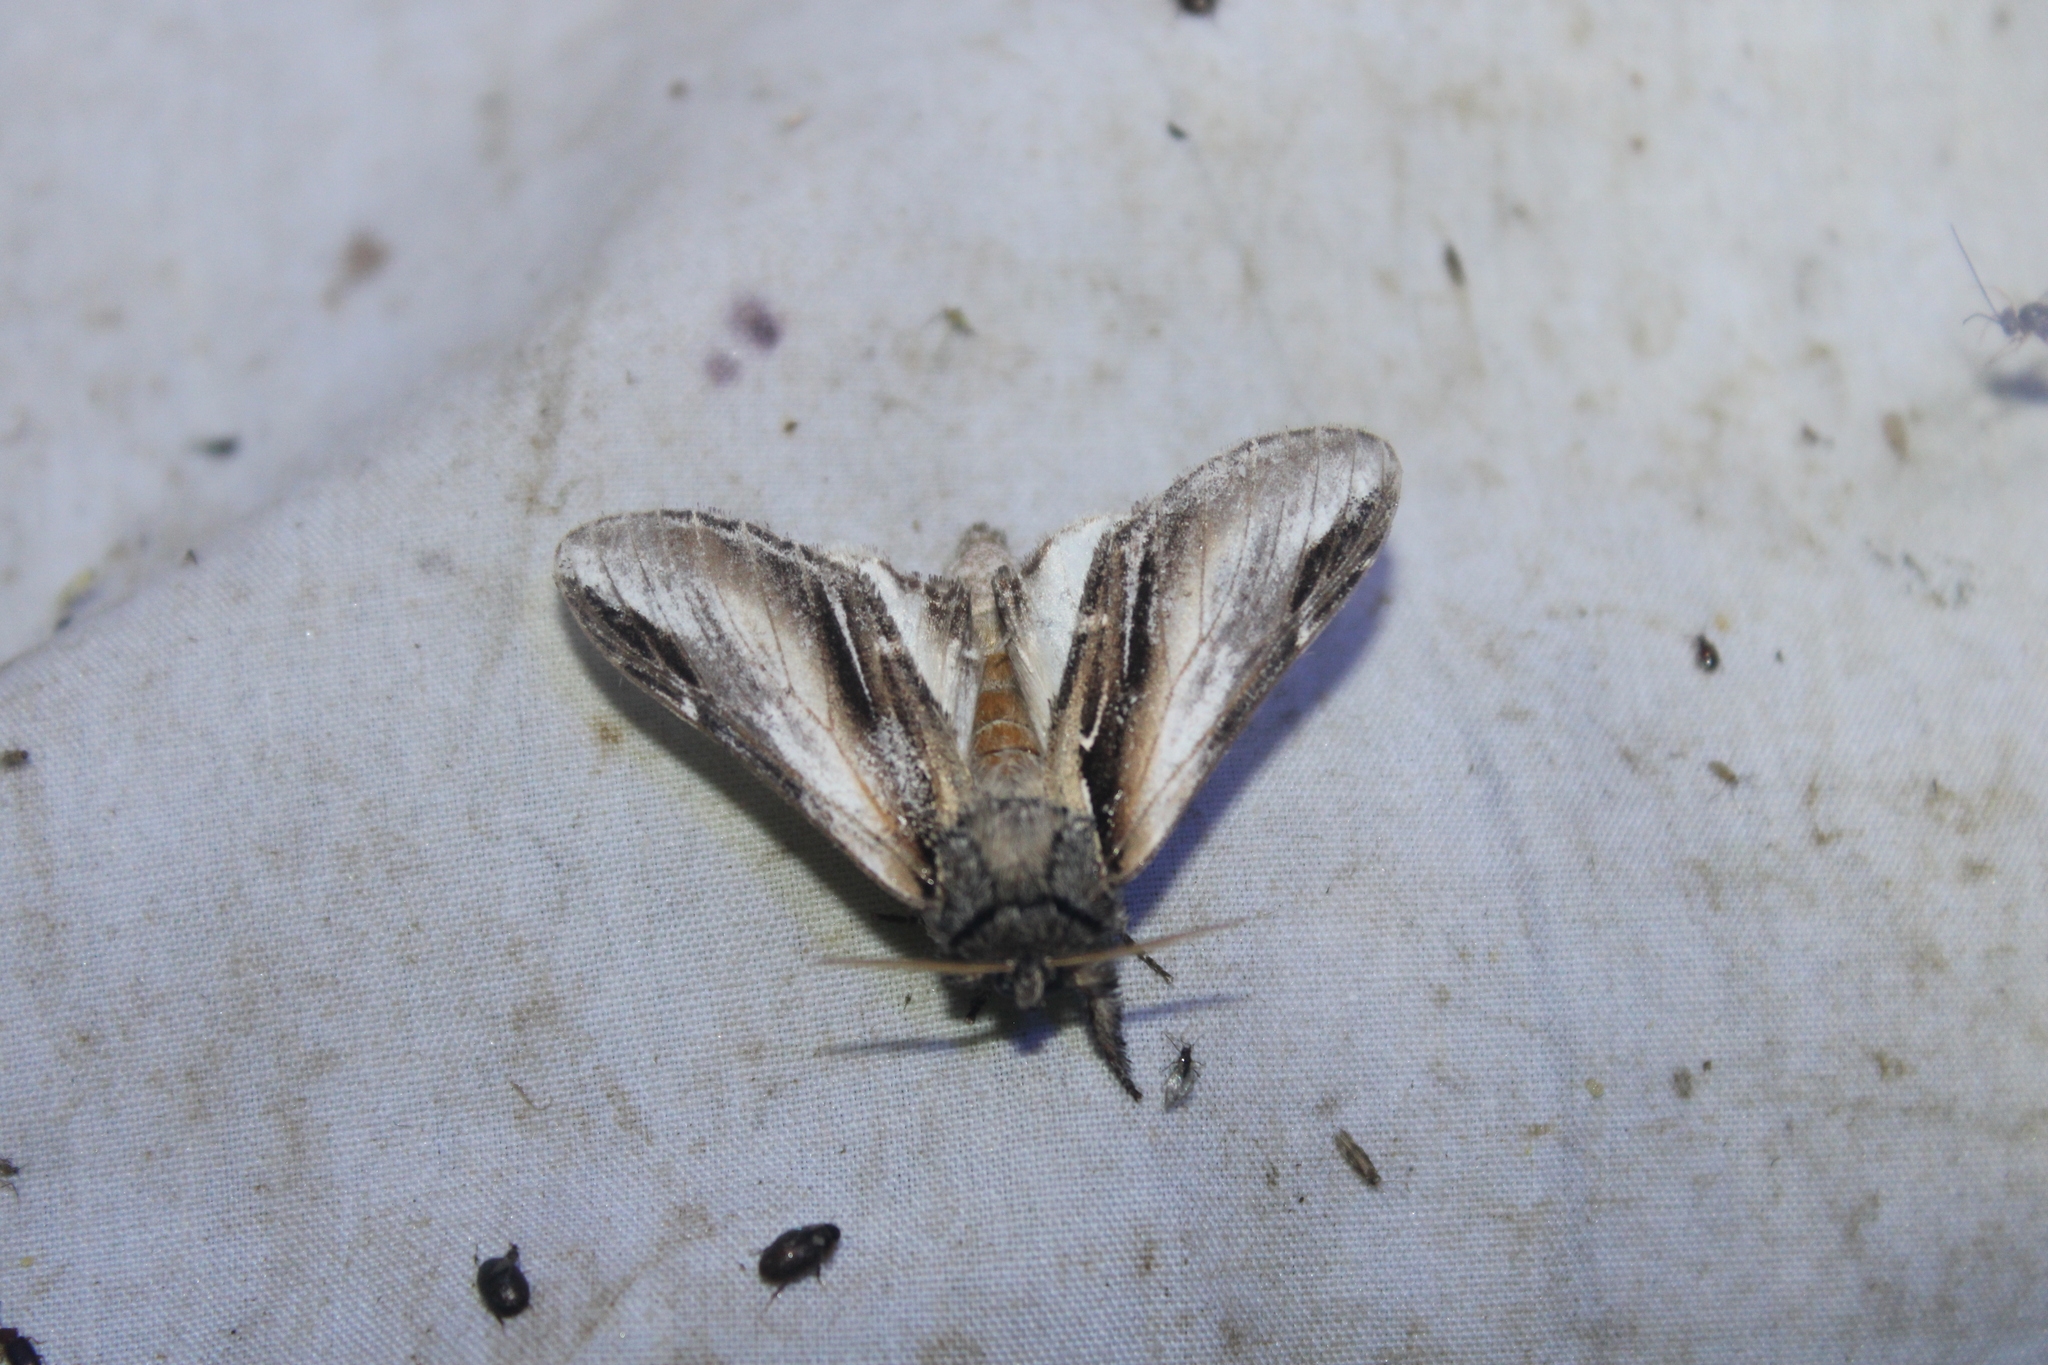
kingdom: Animalia
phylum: Arthropoda
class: Insecta
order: Lepidoptera
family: Notodontidae
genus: Pheosia
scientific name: Pheosia rimosa
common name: Black-rimmed prominent
